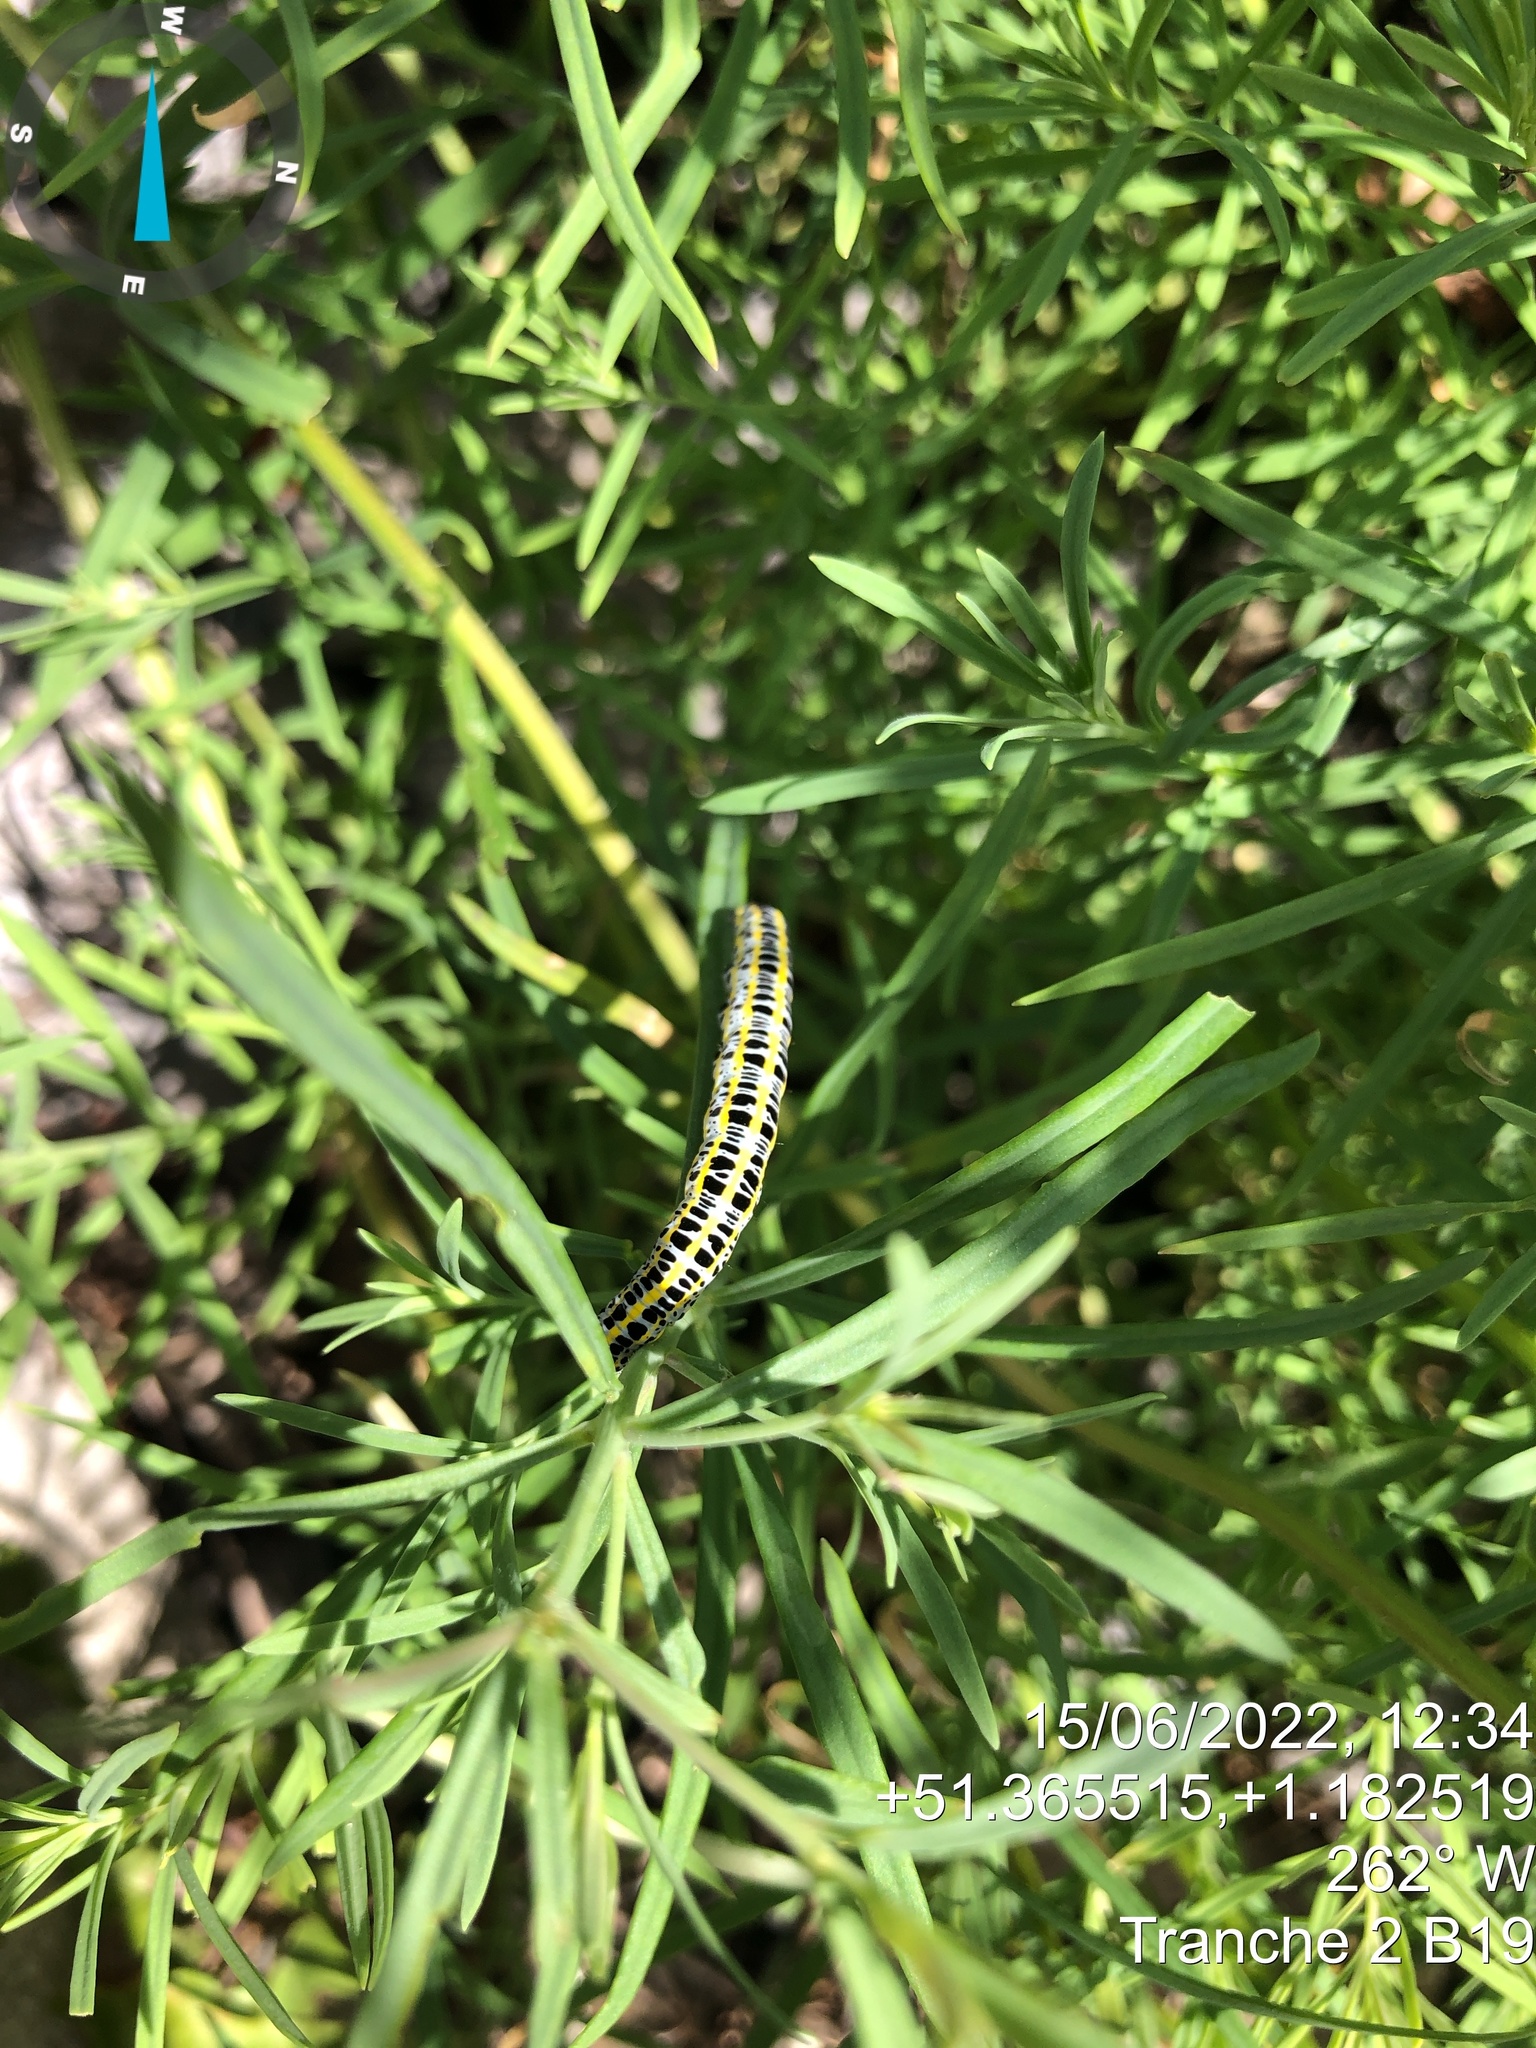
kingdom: Animalia
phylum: Arthropoda
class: Insecta
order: Lepidoptera
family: Noctuidae
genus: Calophasia
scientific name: Calophasia lunula
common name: Toadflax brocade
